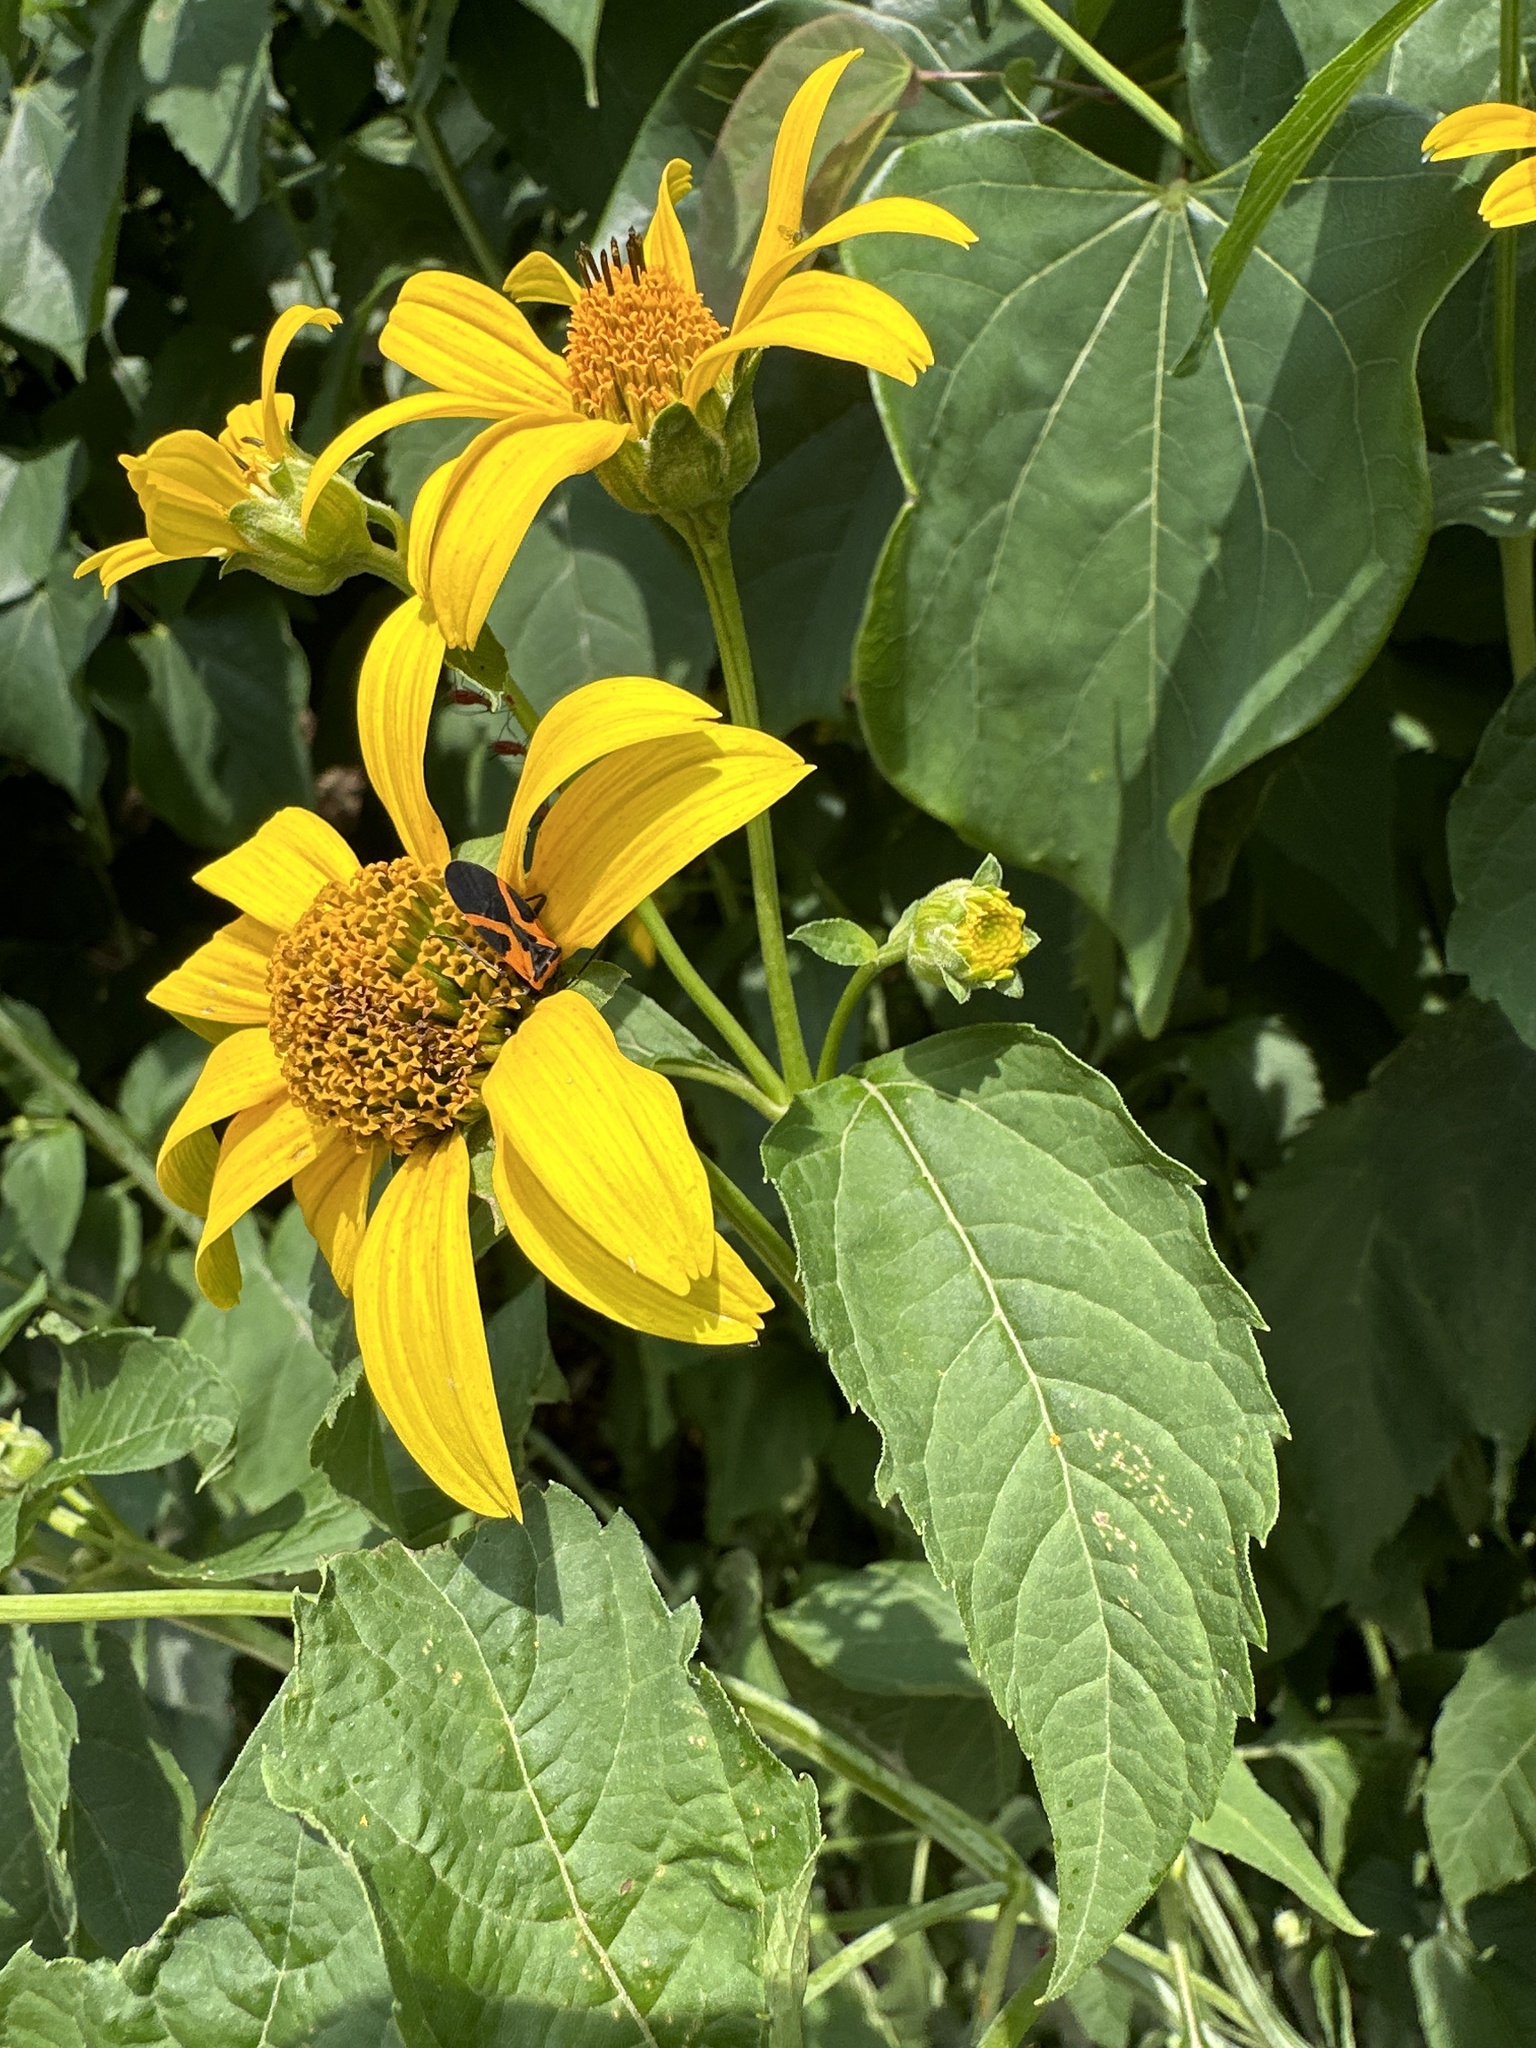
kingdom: Animalia
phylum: Arthropoda
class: Insecta
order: Hemiptera
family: Lygaeidae
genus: Lygaeus
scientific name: Lygaeus turcicus
